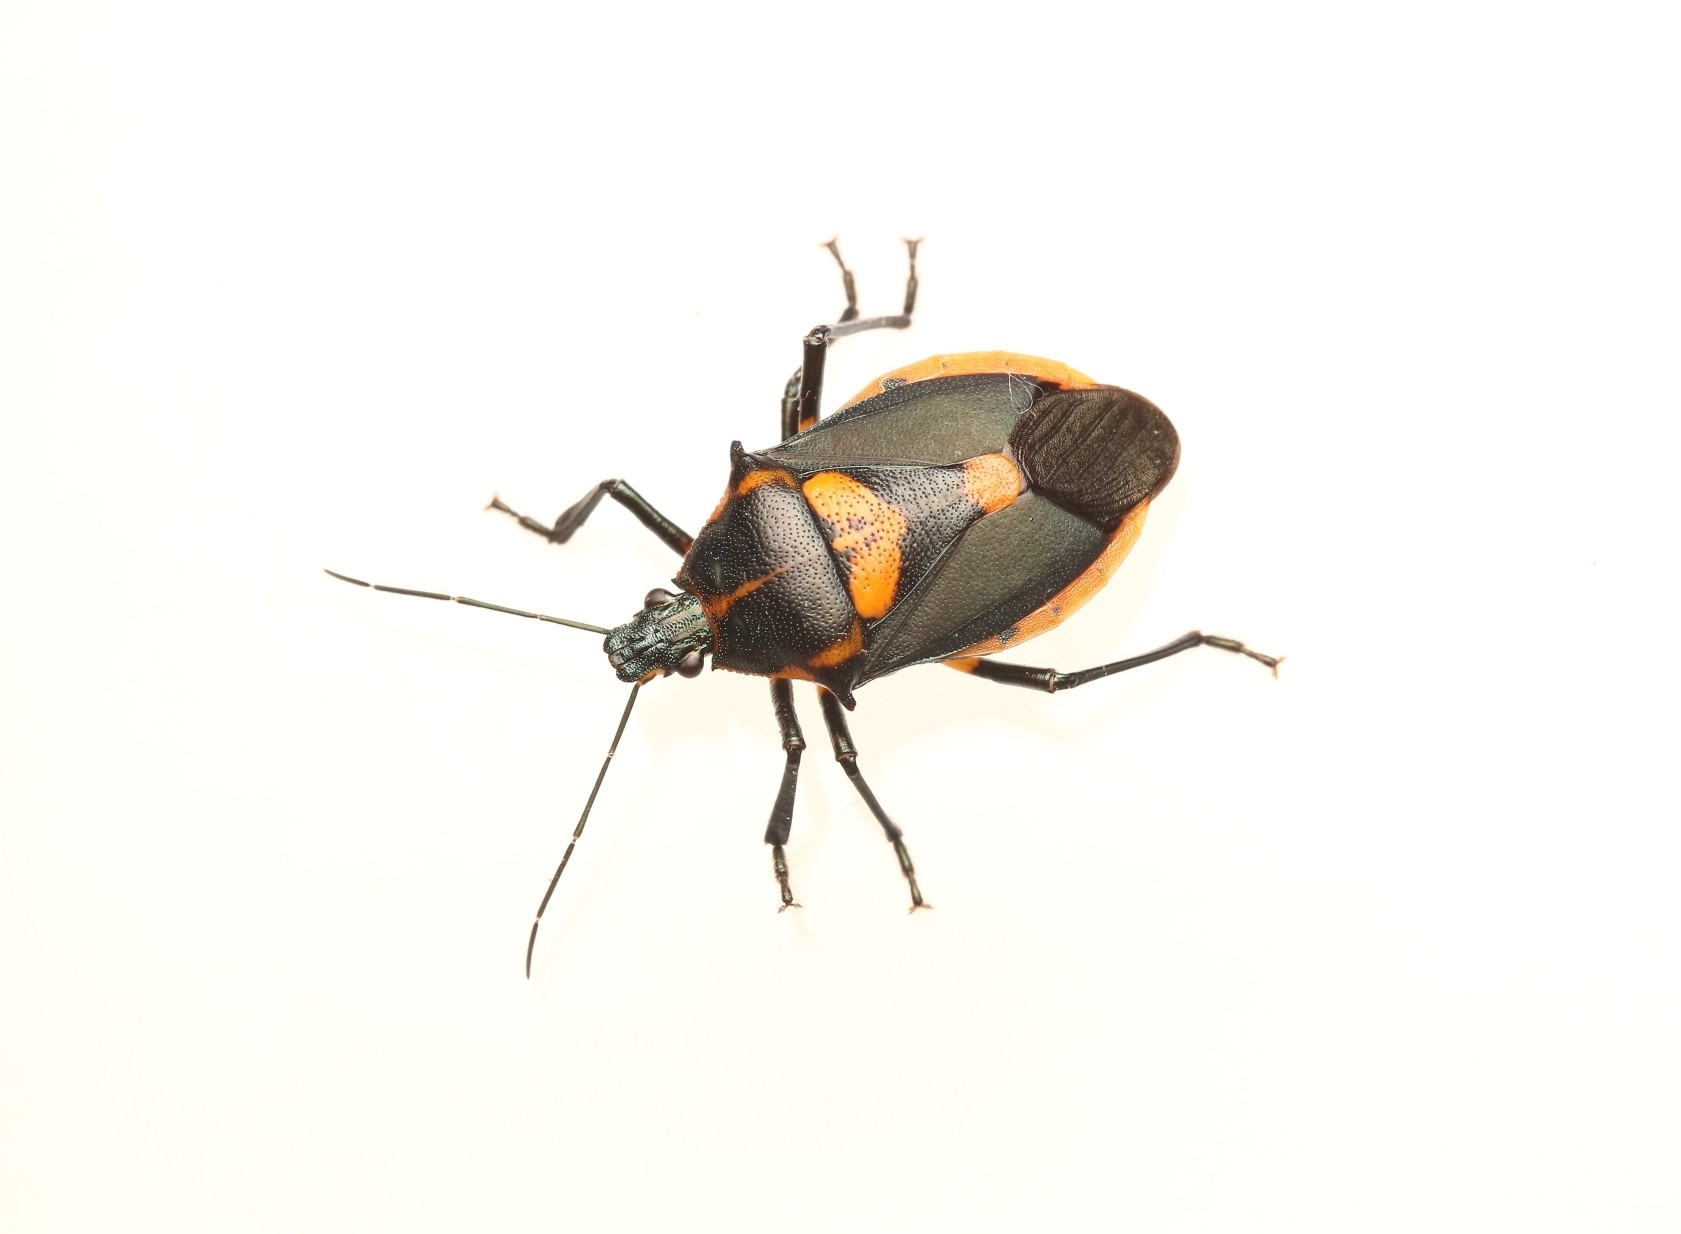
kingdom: Animalia
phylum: Arthropoda
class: Insecta
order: Hemiptera
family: Pentatomidae
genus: Euthyrhynchus
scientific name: Euthyrhynchus floridanus
